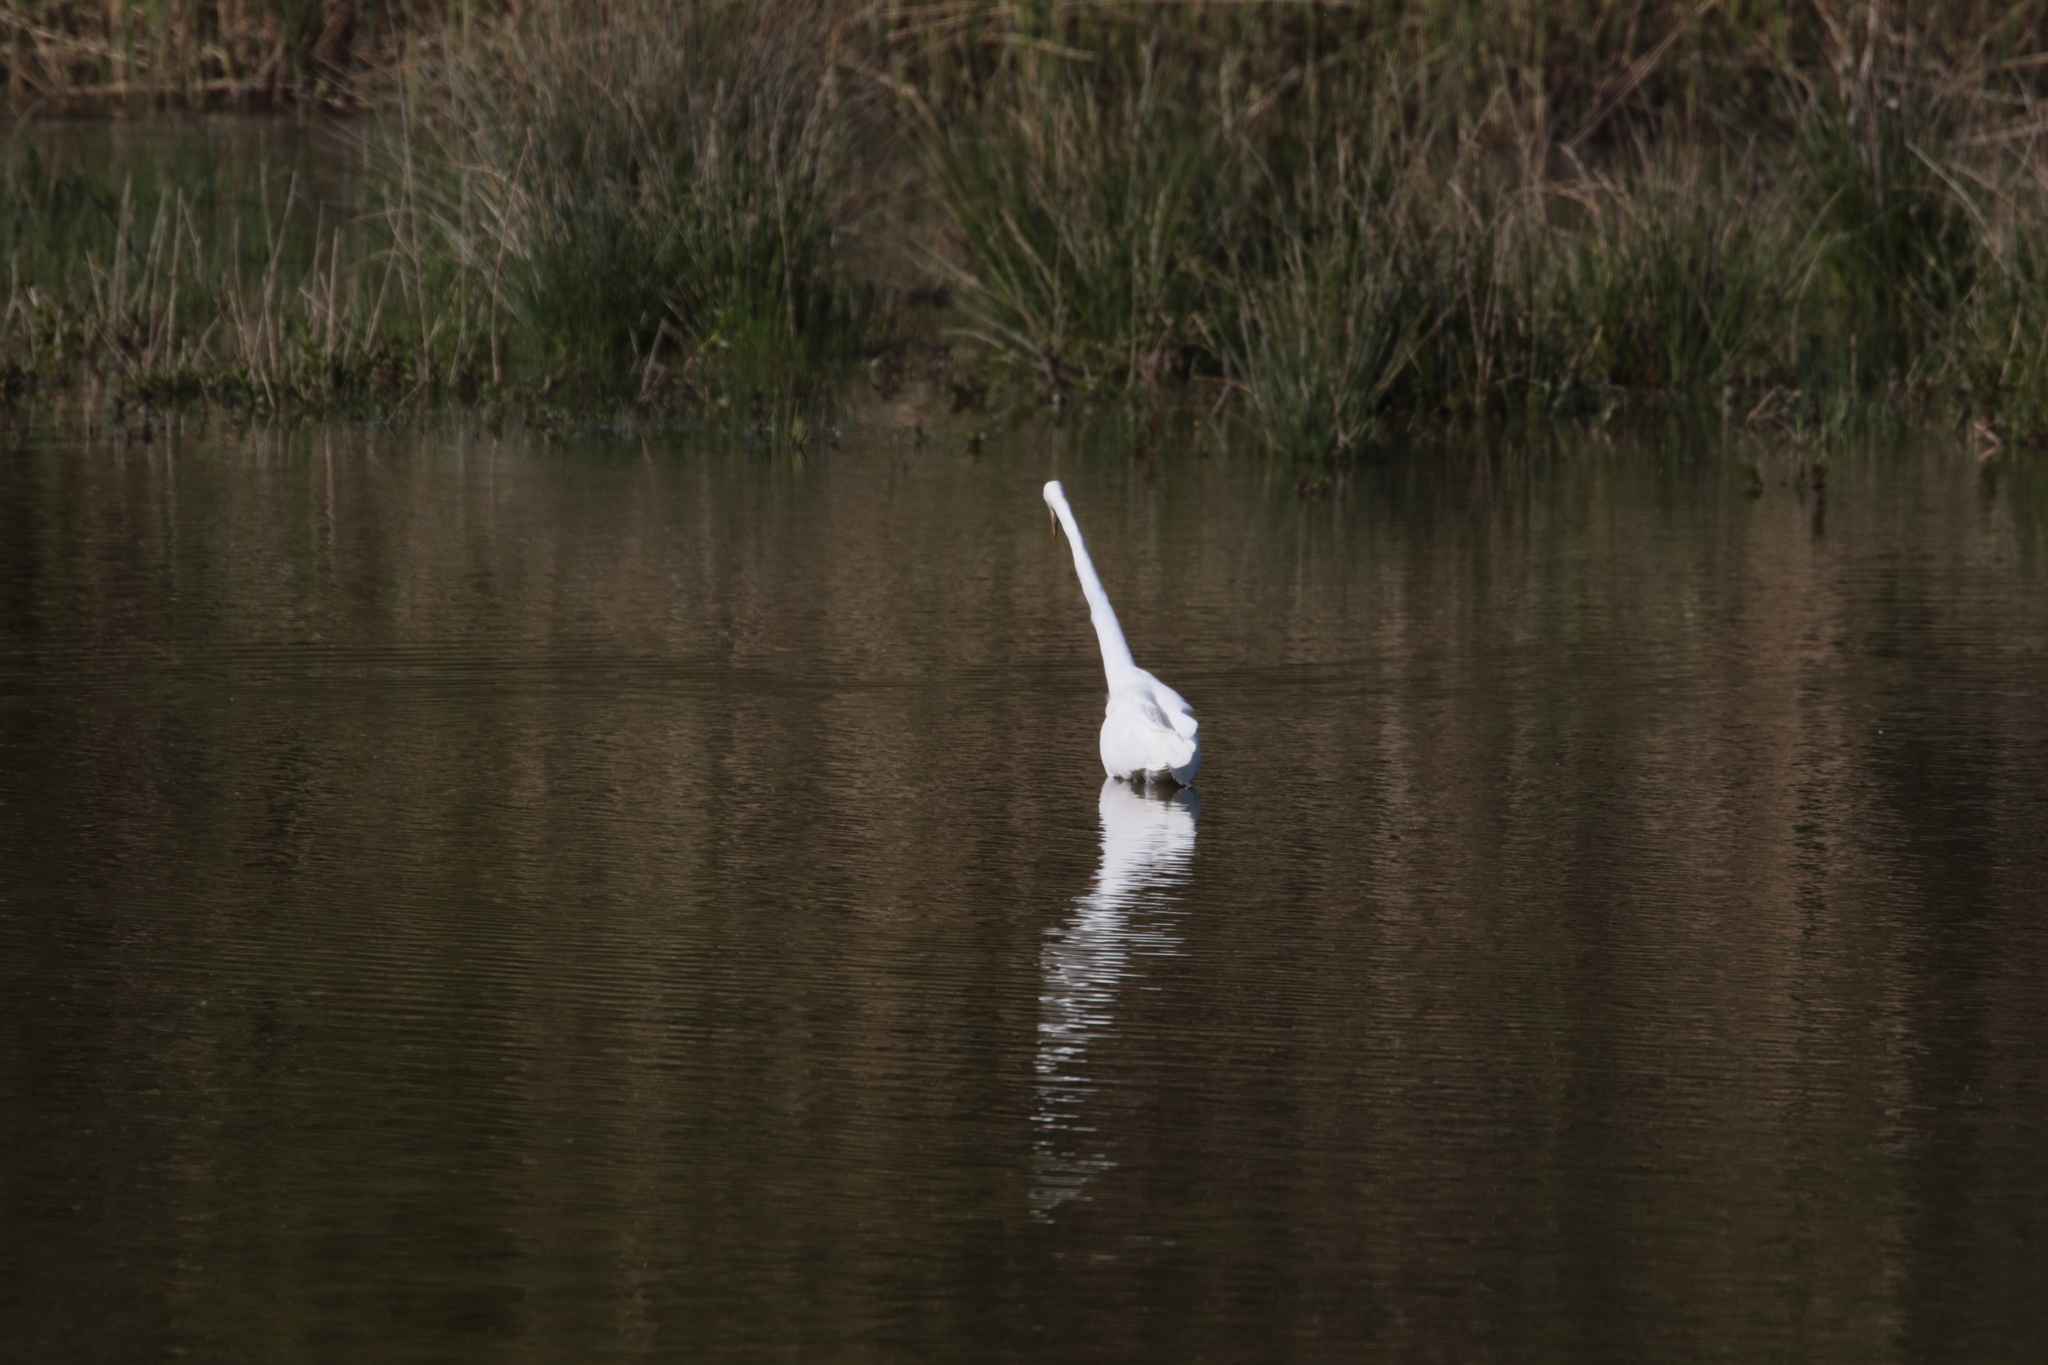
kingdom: Animalia
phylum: Chordata
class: Aves
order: Pelecaniformes
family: Ardeidae
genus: Ardea
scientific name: Ardea alba
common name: Great egret
